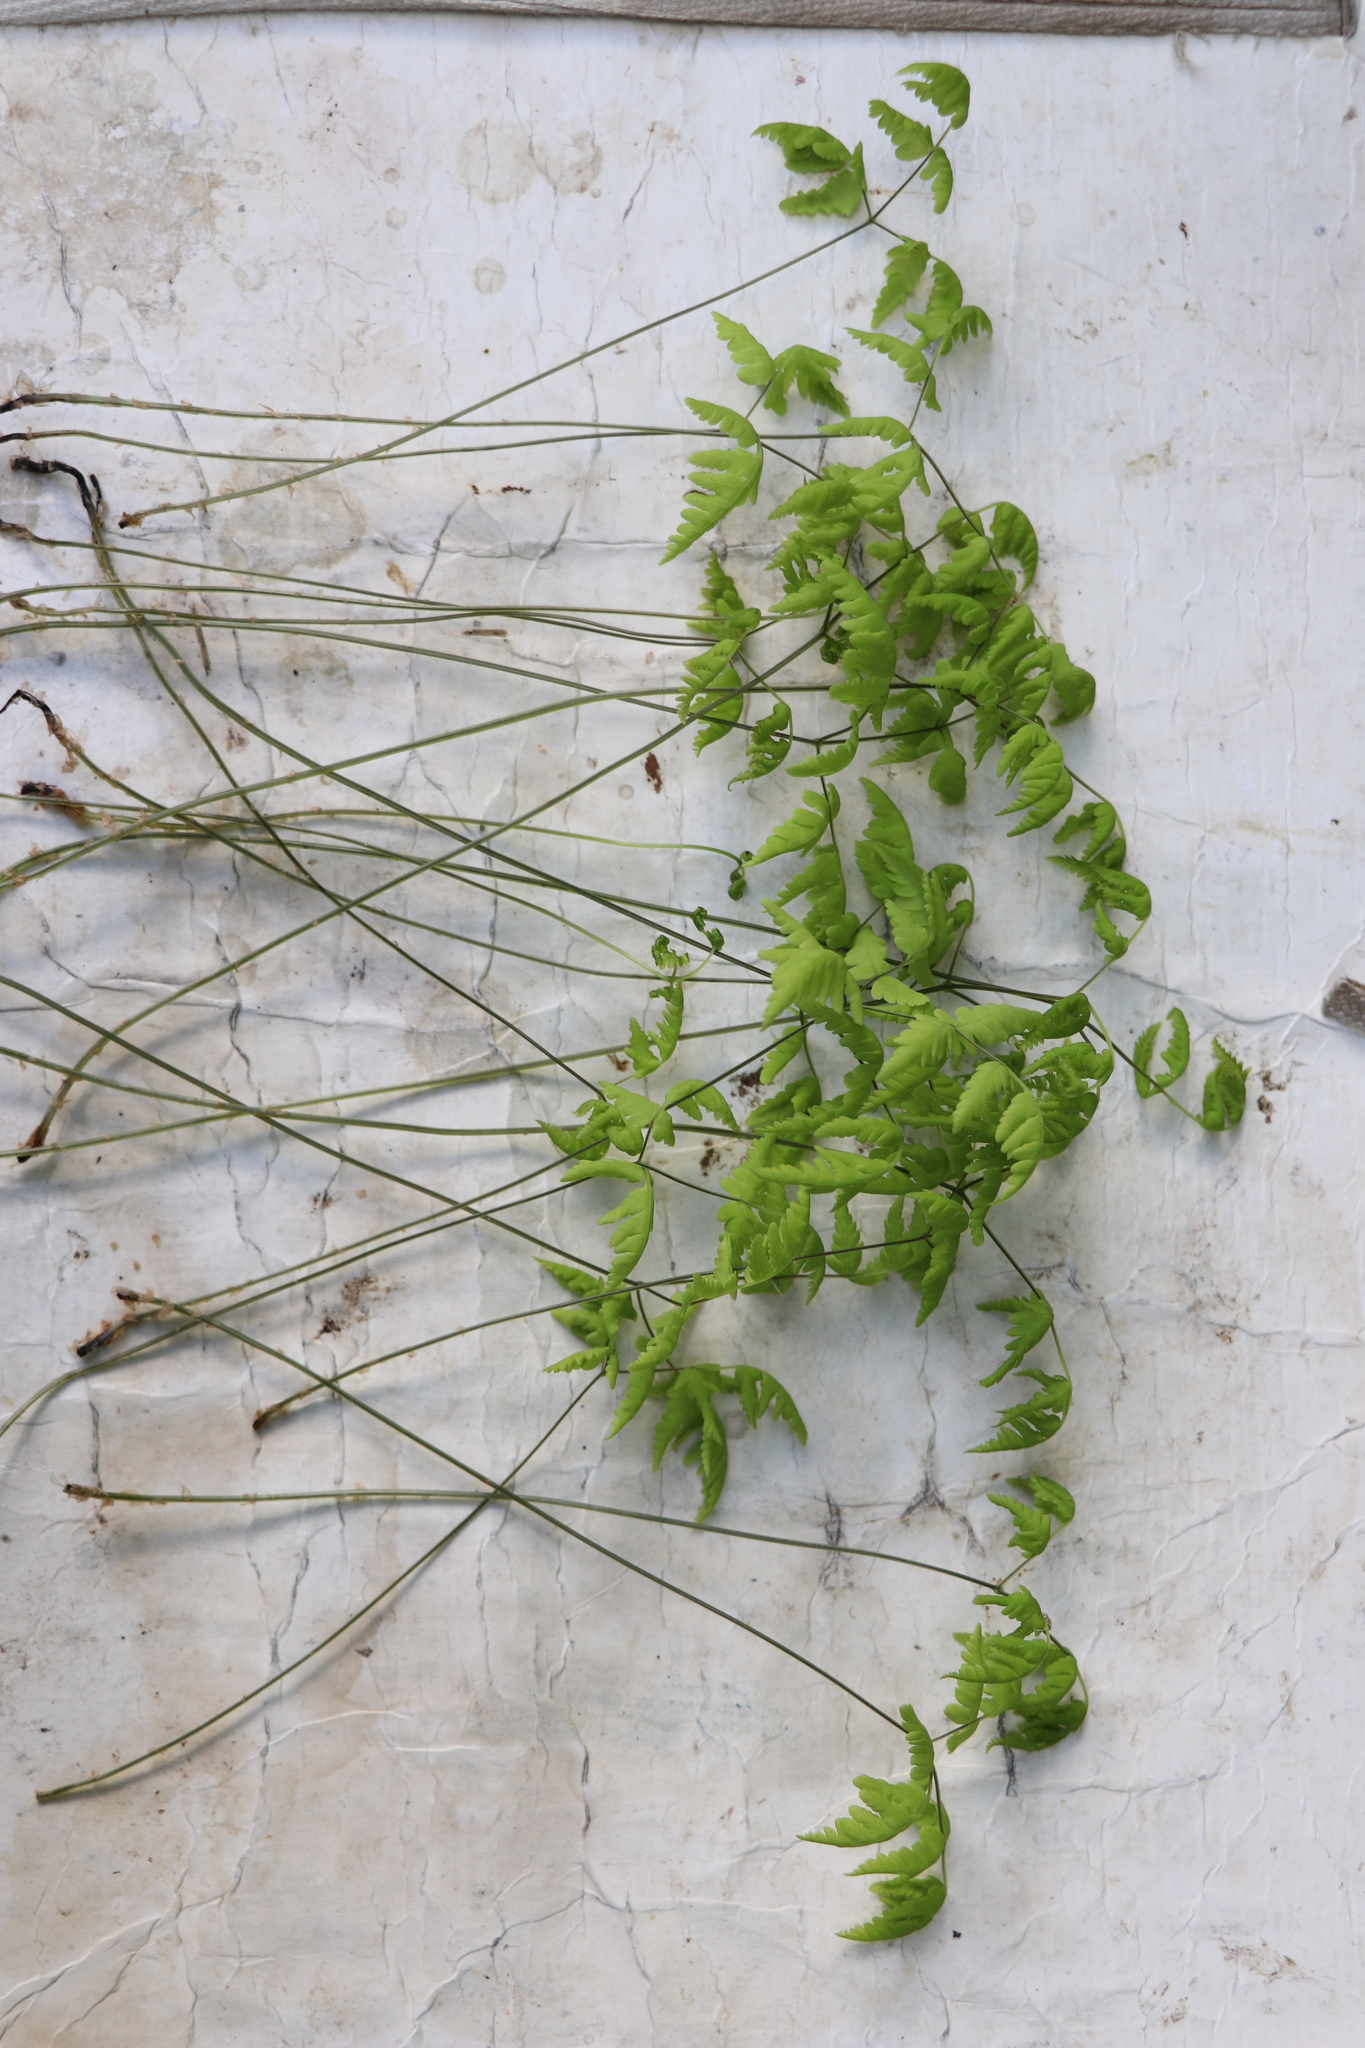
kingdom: Plantae
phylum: Tracheophyta
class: Polypodiopsida
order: Polypodiales
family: Cystopteridaceae
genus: Gymnocarpium
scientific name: Gymnocarpium dryopteris
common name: Oak fern
